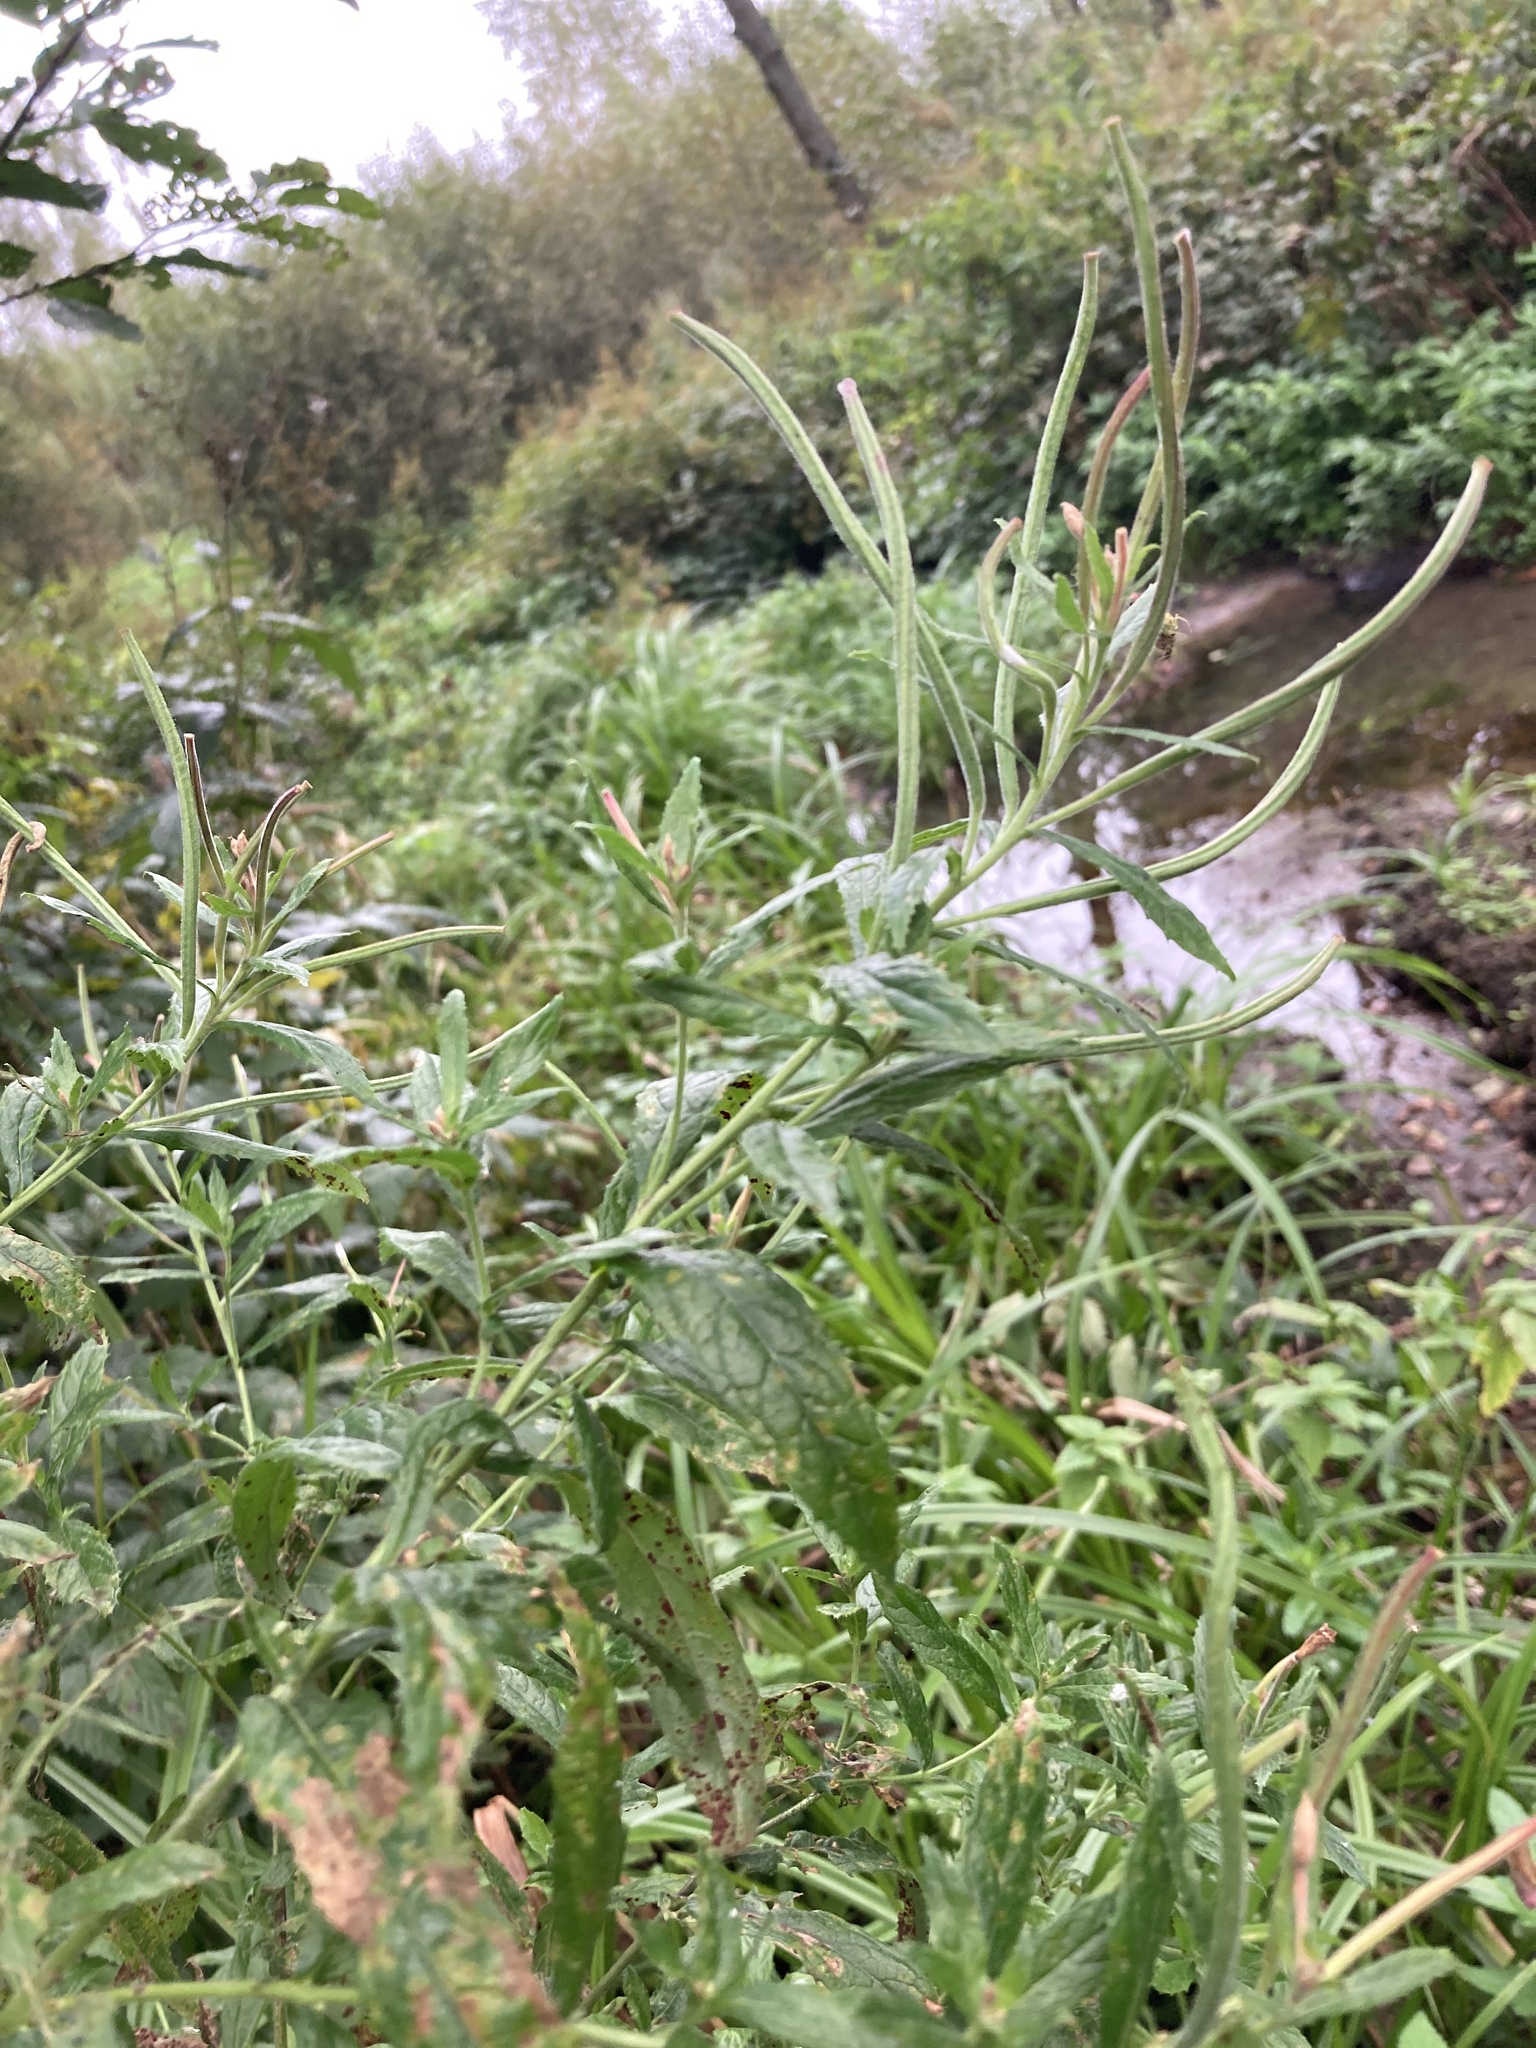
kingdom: Plantae
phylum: Tracheophyta
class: Magnoliopsida
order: Myrtales
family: Onagraceae
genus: Epilobium
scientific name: Epilobium hirsutum
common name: Great willowherb
